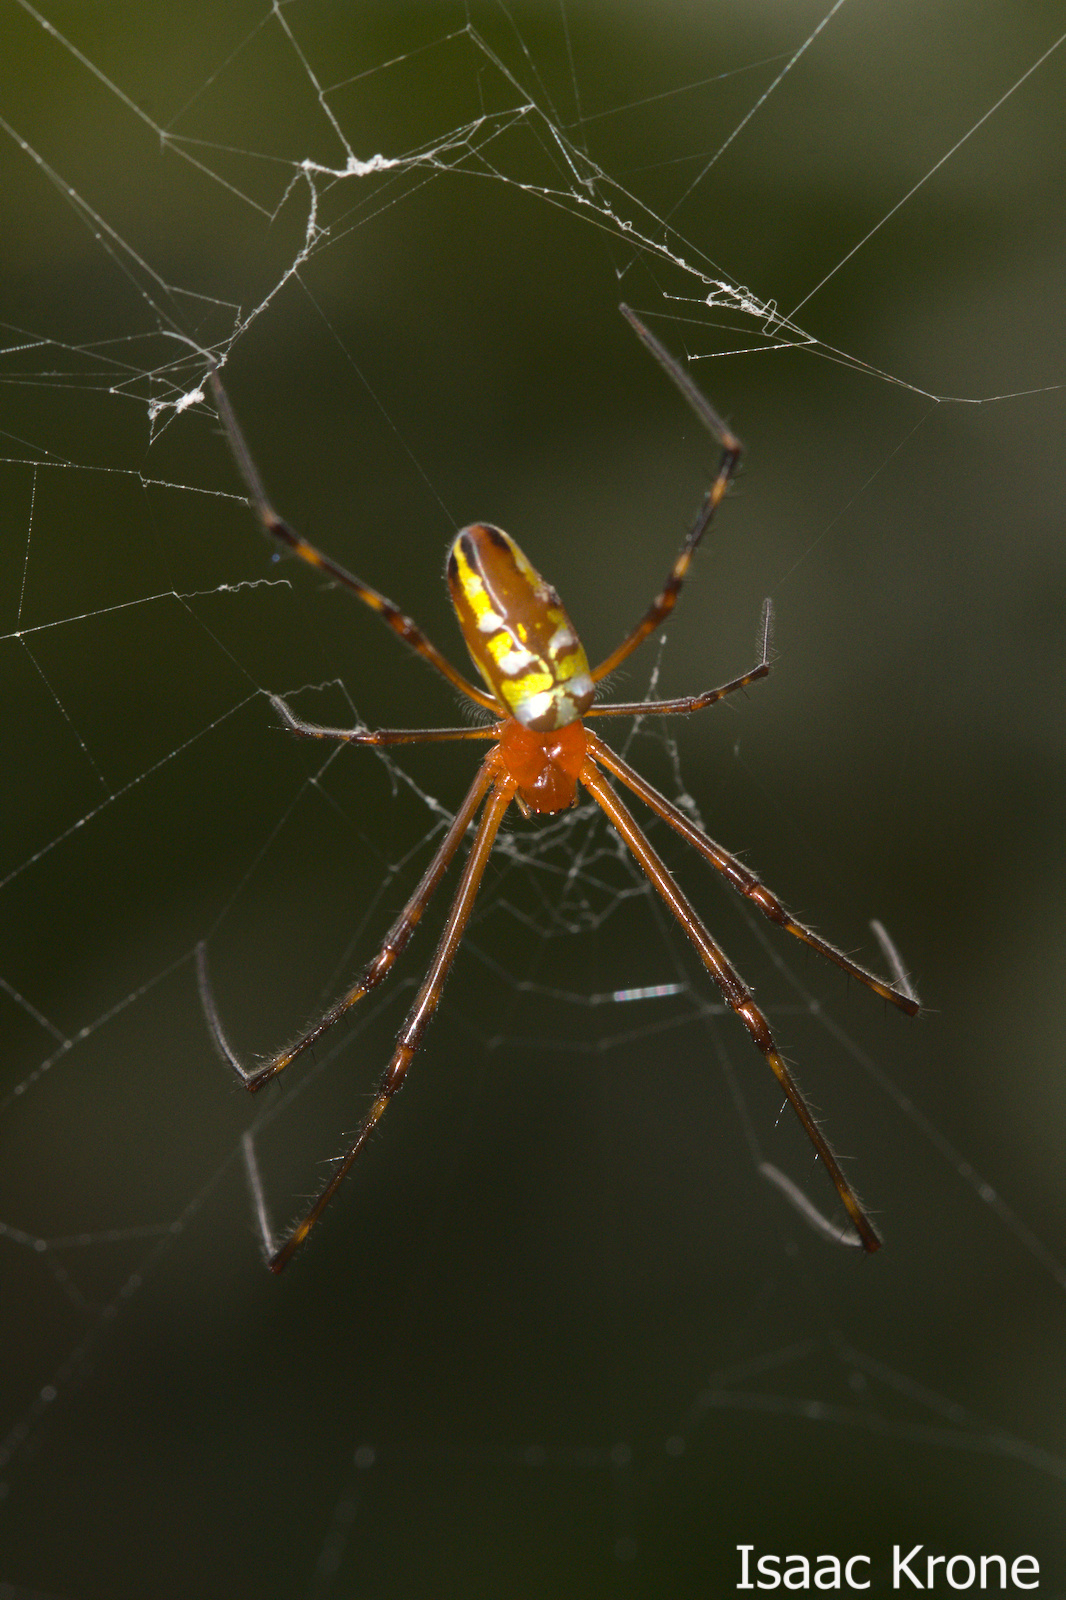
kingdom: Animalia
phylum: Arthropoda
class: Arachnida
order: Araneae
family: Tetragnathidae
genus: Leucauge
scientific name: Leucauge granulata
